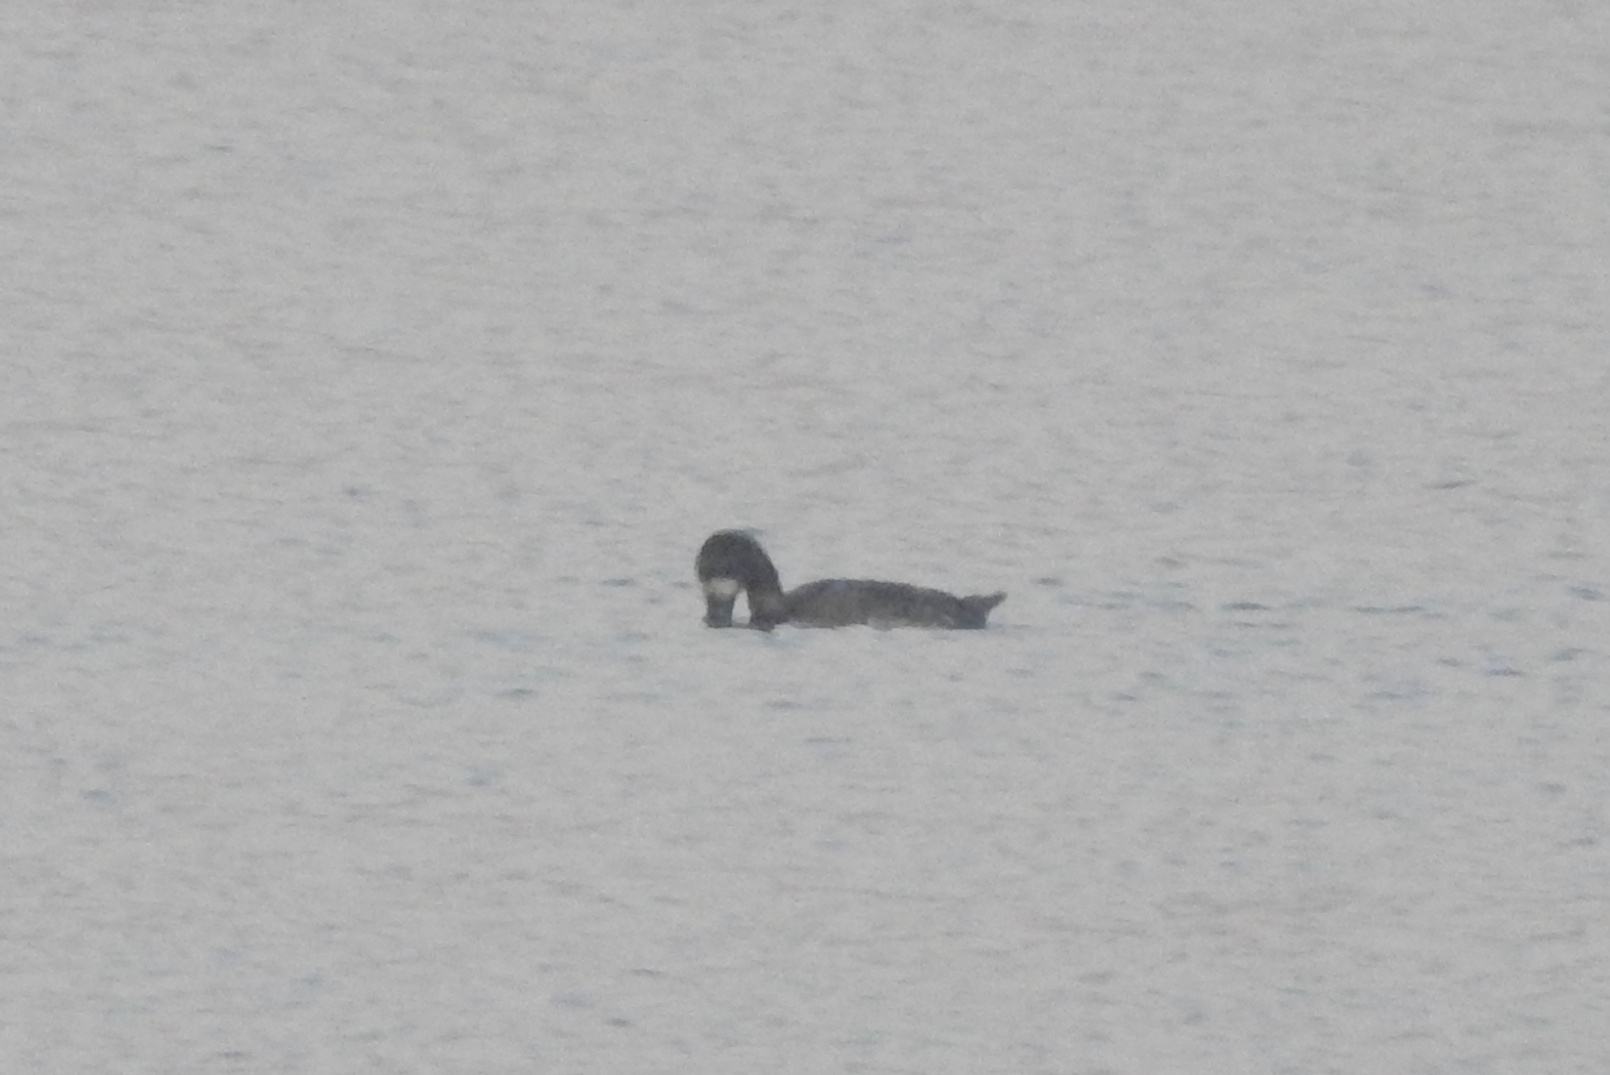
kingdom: Animalia
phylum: Chordata
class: Aves
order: Anseriformes
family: Anatidae
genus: Spatula
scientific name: Spatula discors
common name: Blue-winged teal
